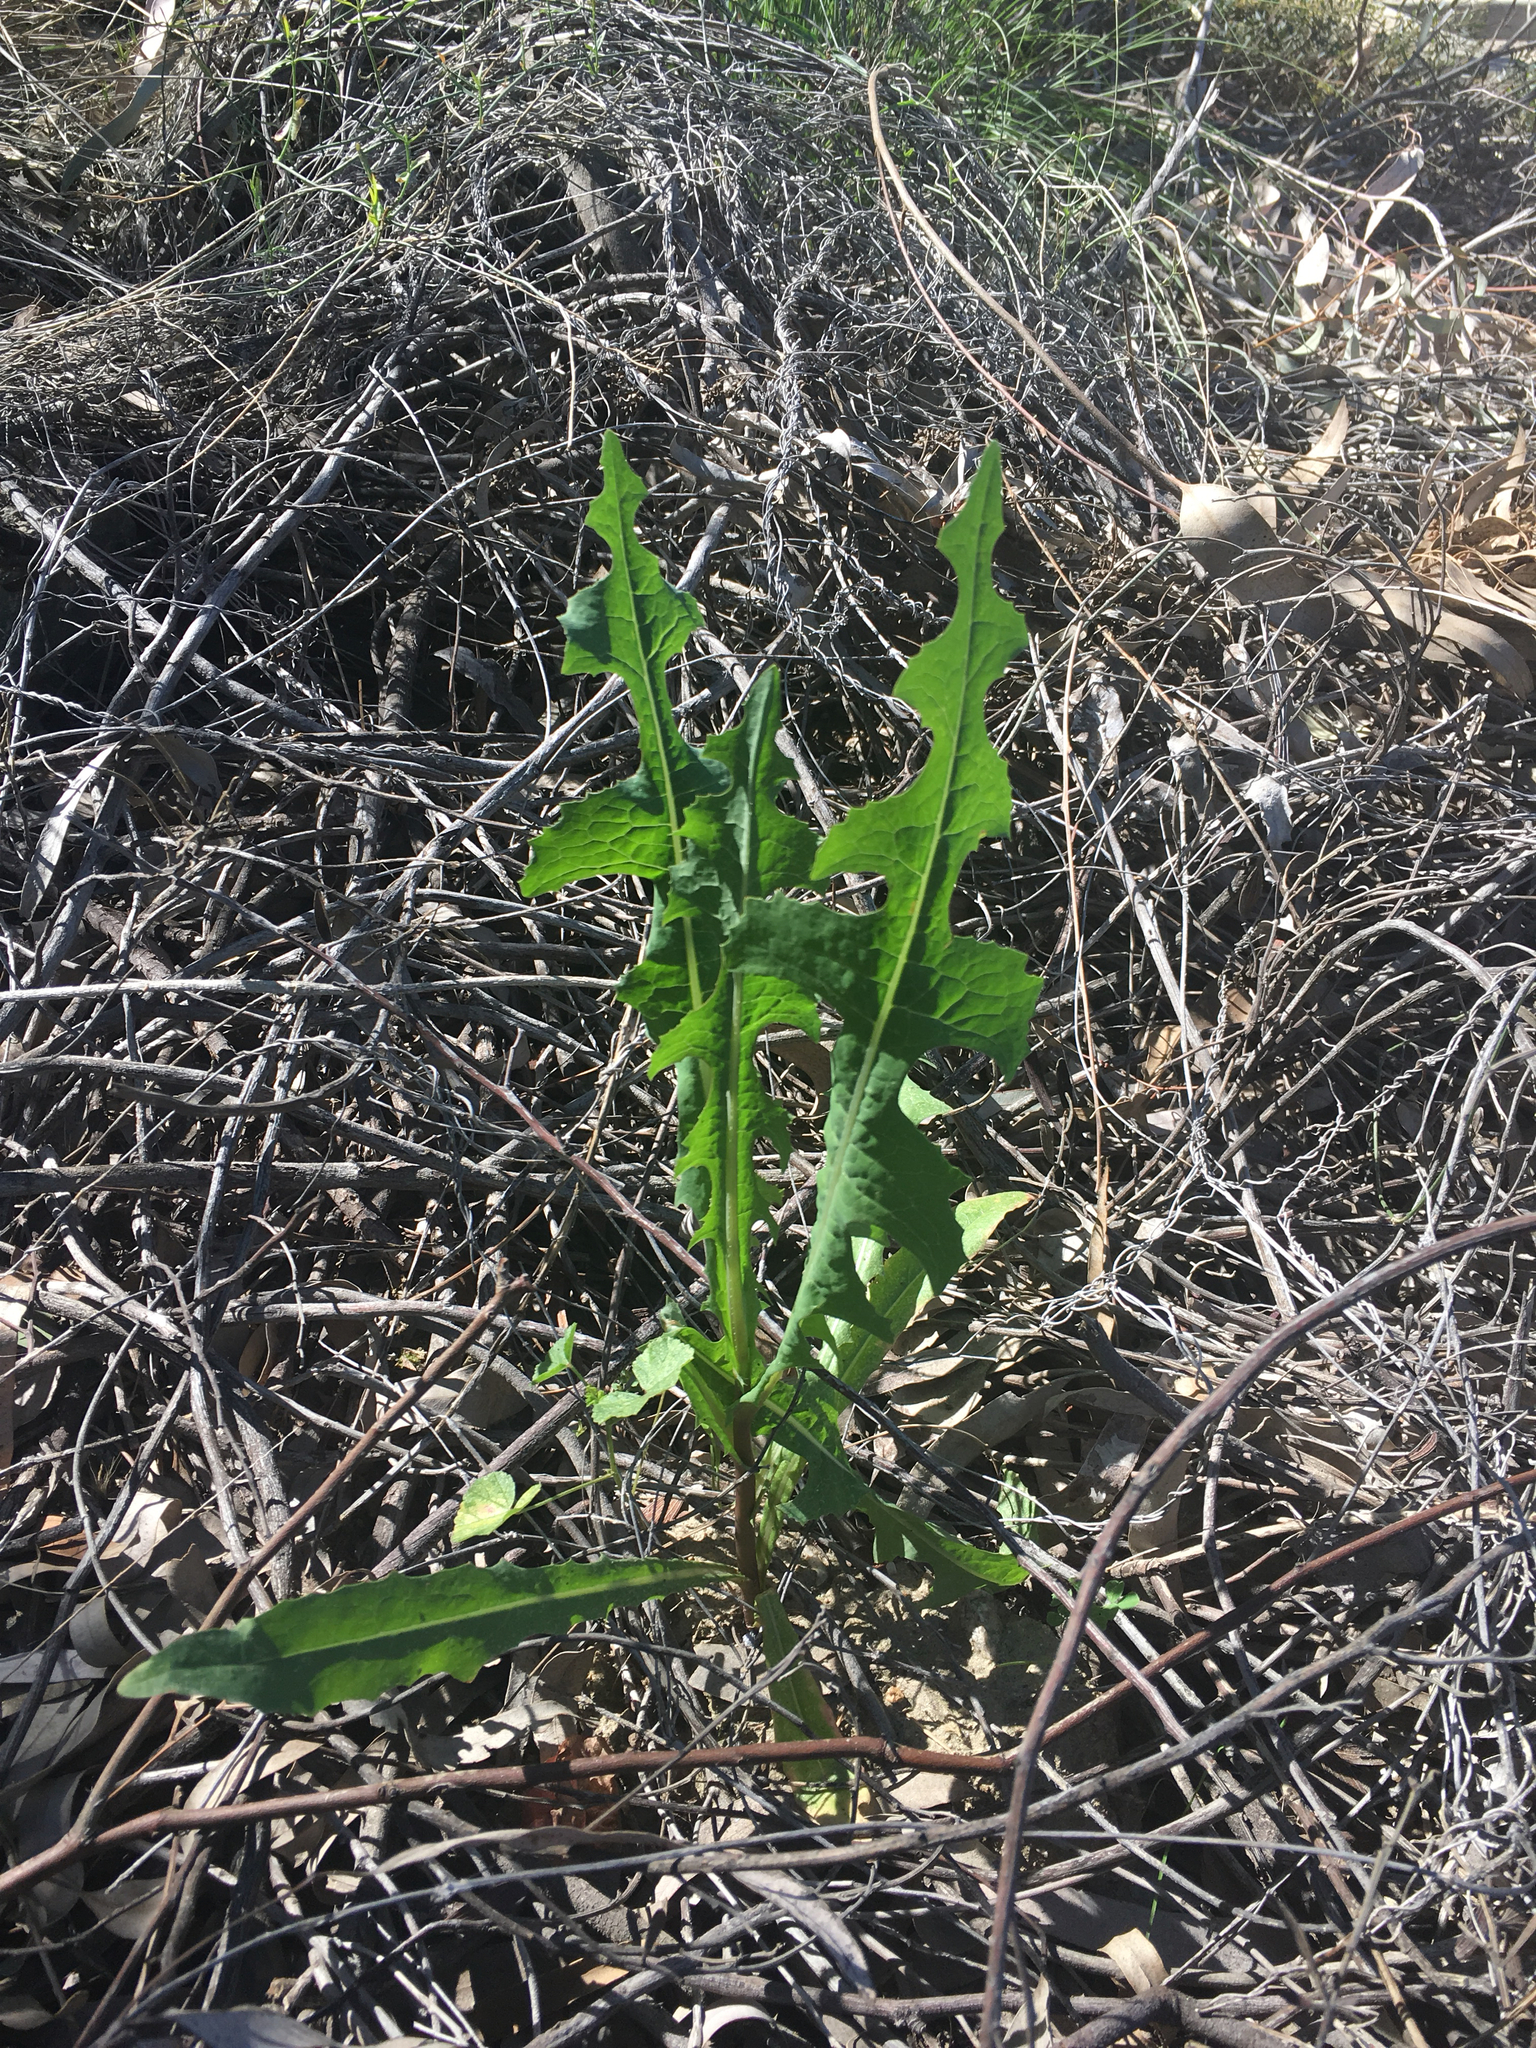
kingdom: Plantae
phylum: Tracheophyta
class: Magnoliopsida
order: Asterales
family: Asteraceae
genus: Lactuca
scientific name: Lactuca serriola
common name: Prickly lettuce
